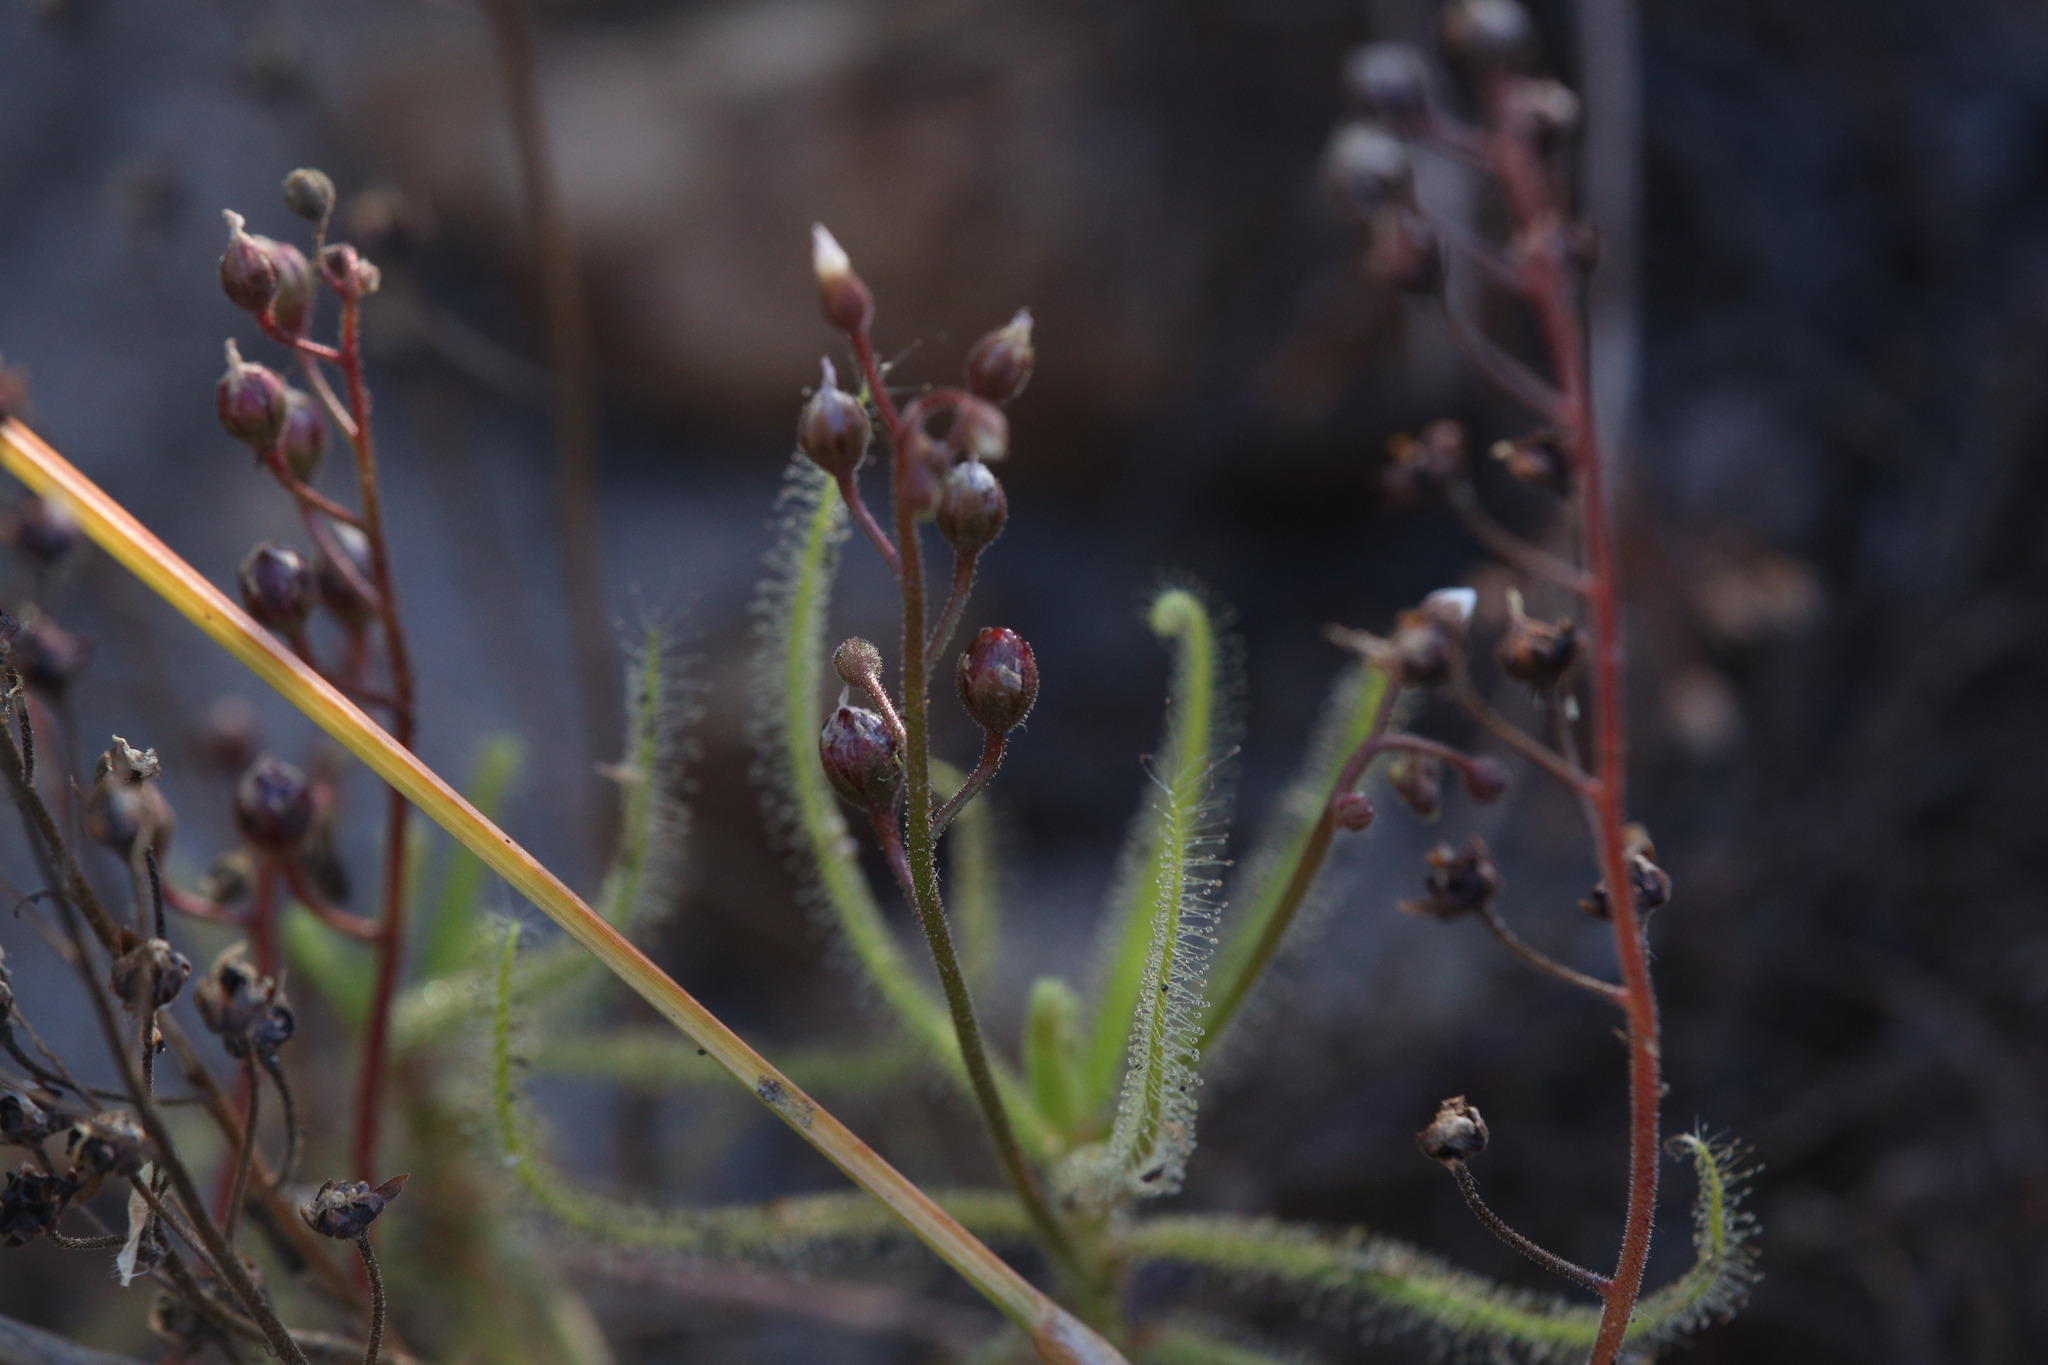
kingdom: Plantae
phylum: Tracheophyta
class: Magnoliopsida
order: Caryophyllales
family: Droseraceae
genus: Drosera
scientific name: Drosera finlaysoniana
